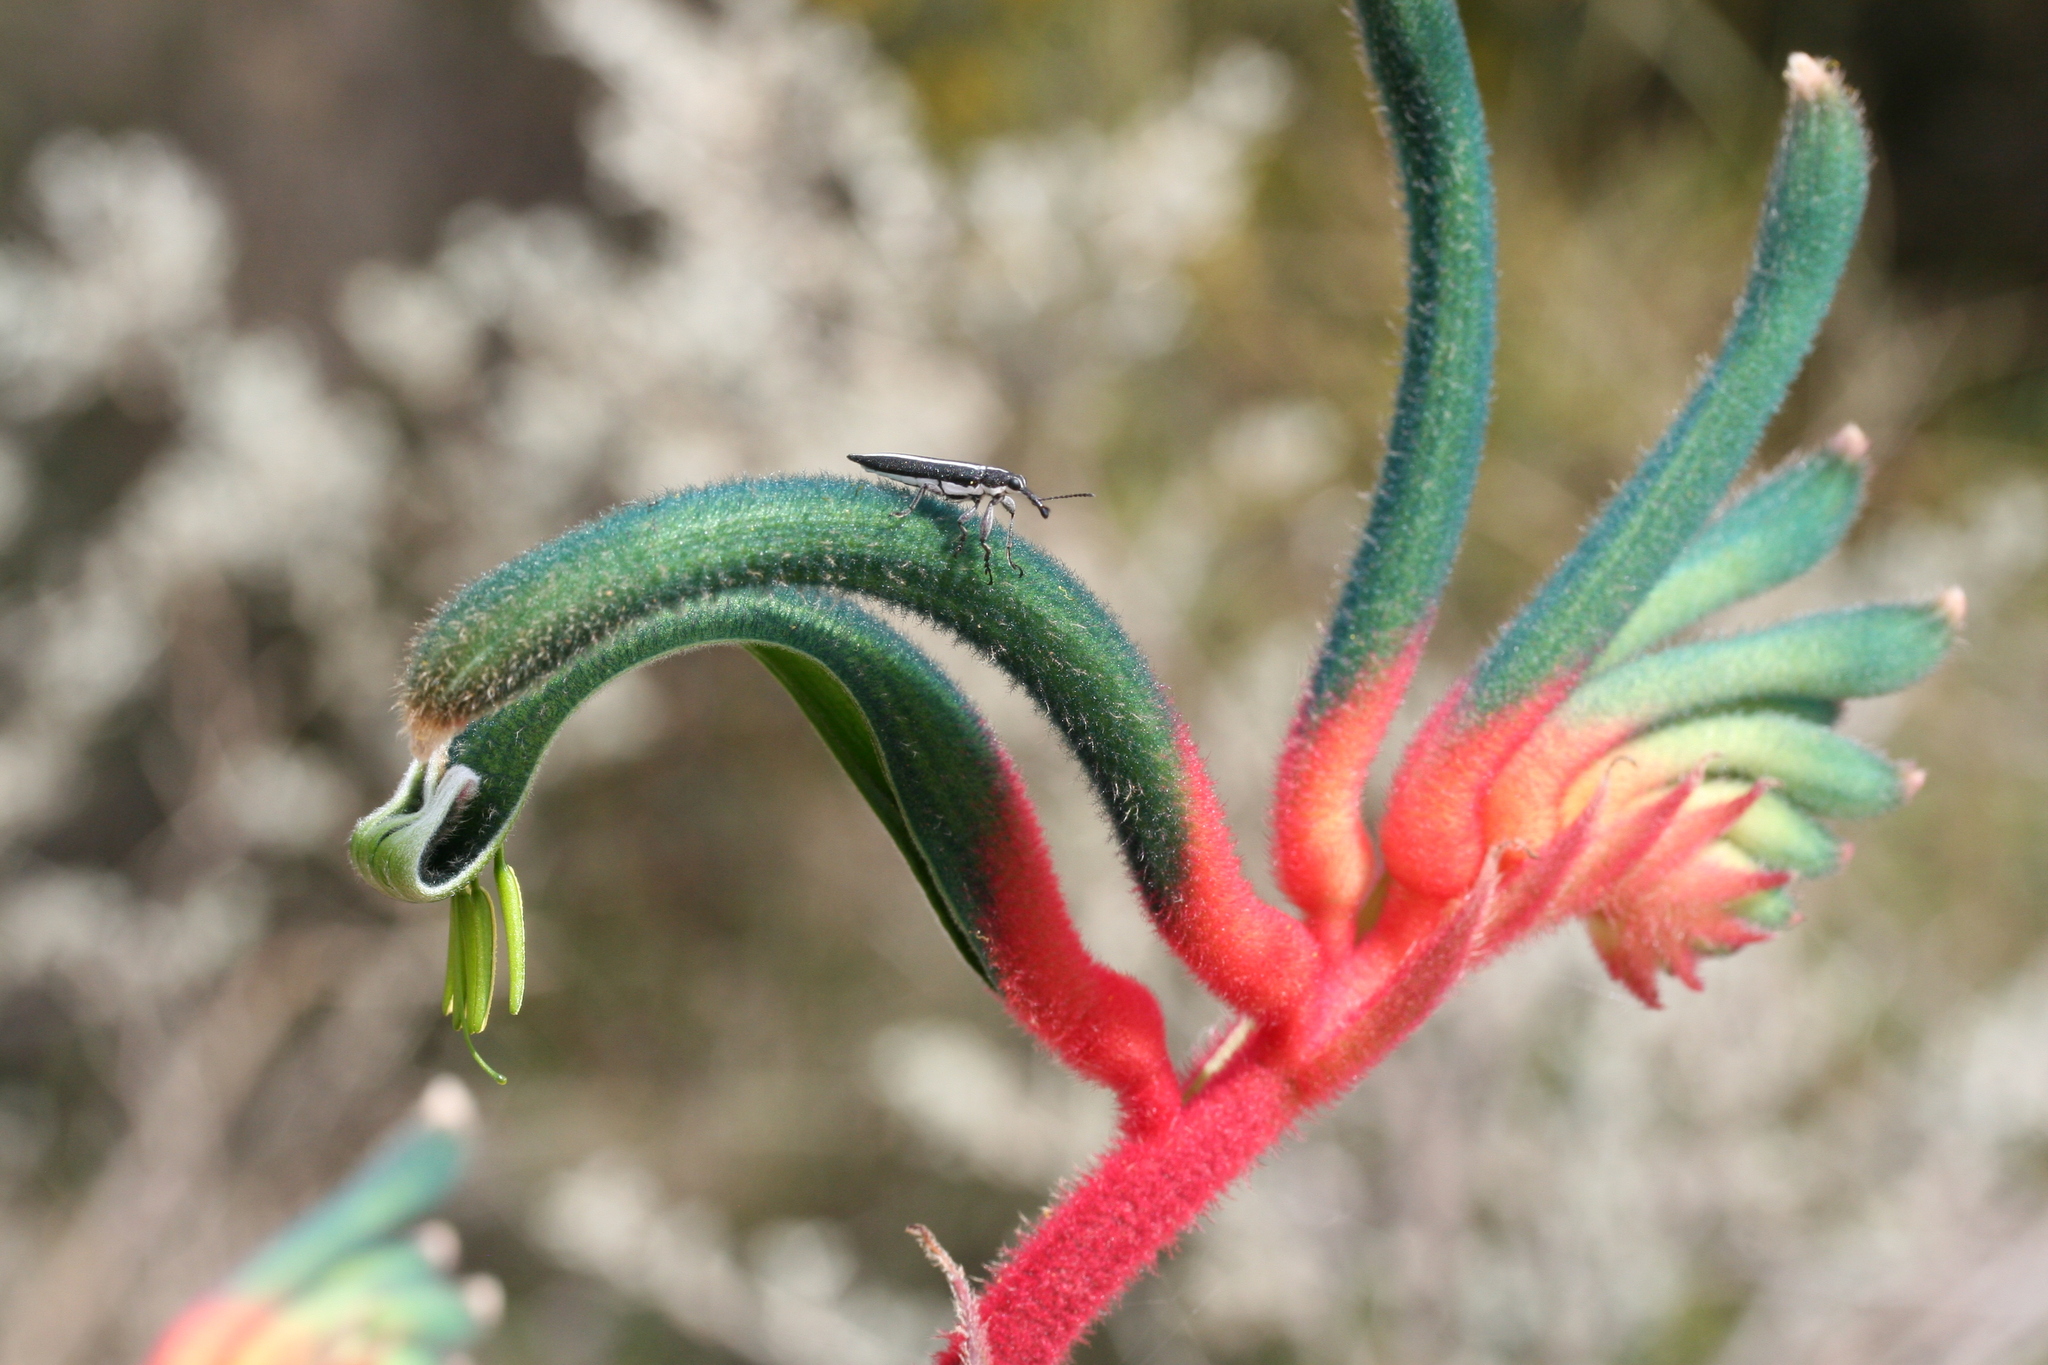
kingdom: Plantae
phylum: Tracheophyta
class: Liliopsida
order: Commelinales
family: Haemodoraceae
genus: Anigozanthos
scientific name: Anigozanthos manglesii
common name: Mangles's kangaroo-paw
